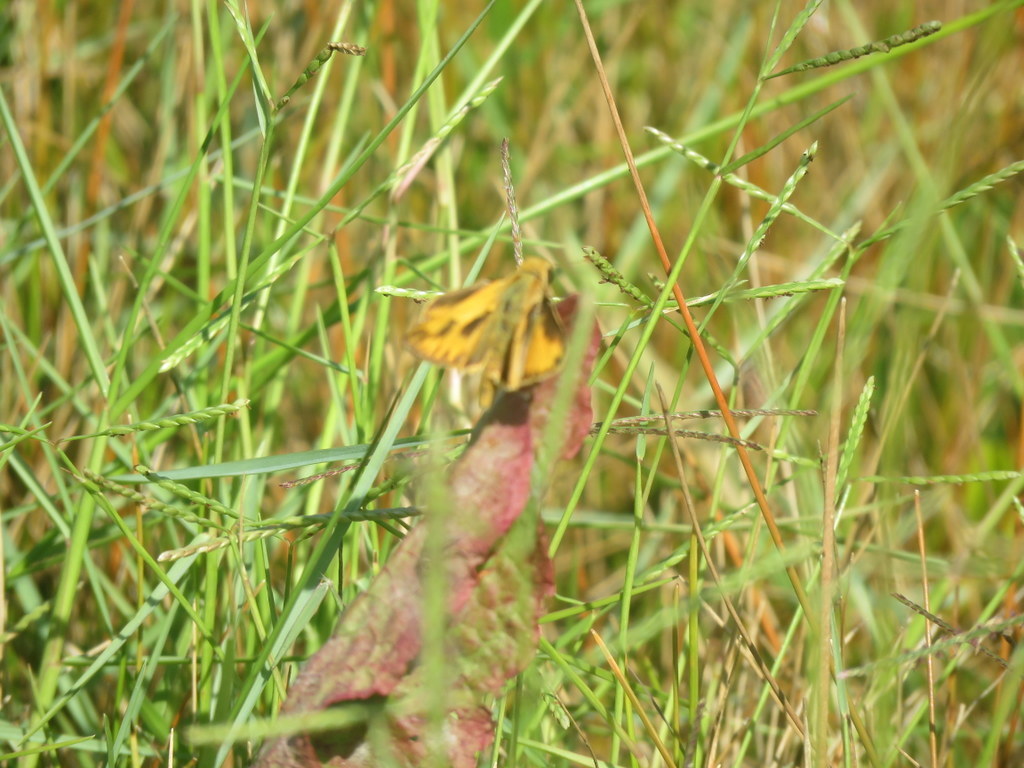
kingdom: Animalia
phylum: Arthropoda
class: Insecta
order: Lepidoptera
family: Hesperiidae
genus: Hylephila
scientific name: Hylephila phyleus
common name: Fiery skipper
